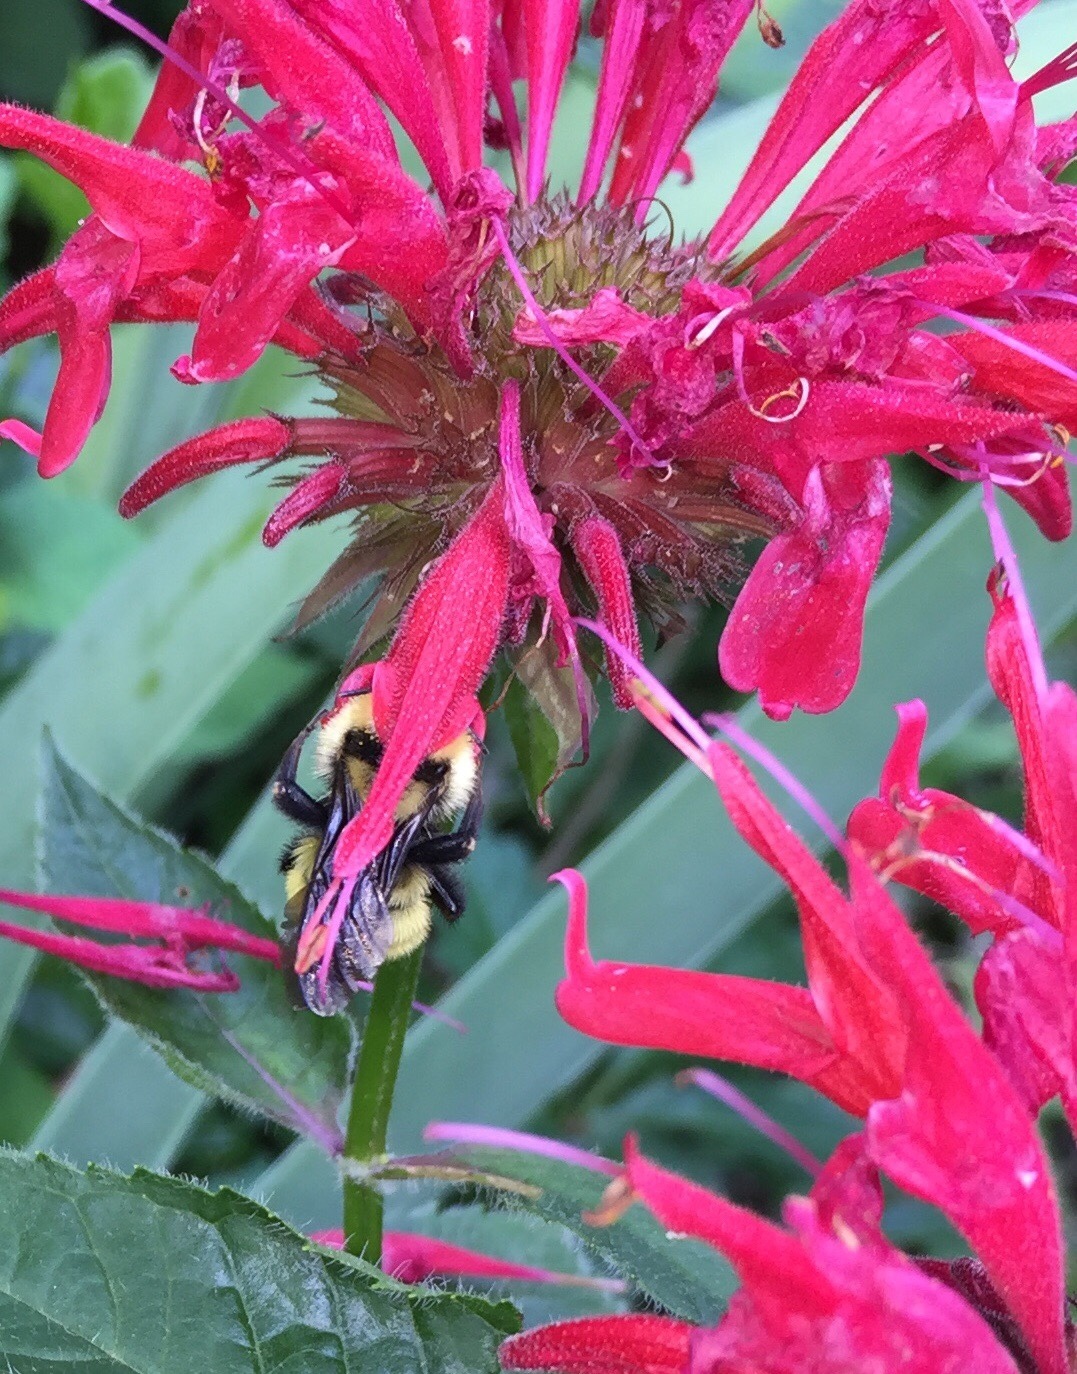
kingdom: Animalia
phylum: Arthropoda
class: Insecta
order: Hymenoptera
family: Apidae
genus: Bombus
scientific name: Bombus fervidus
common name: Yellow bumble bee
